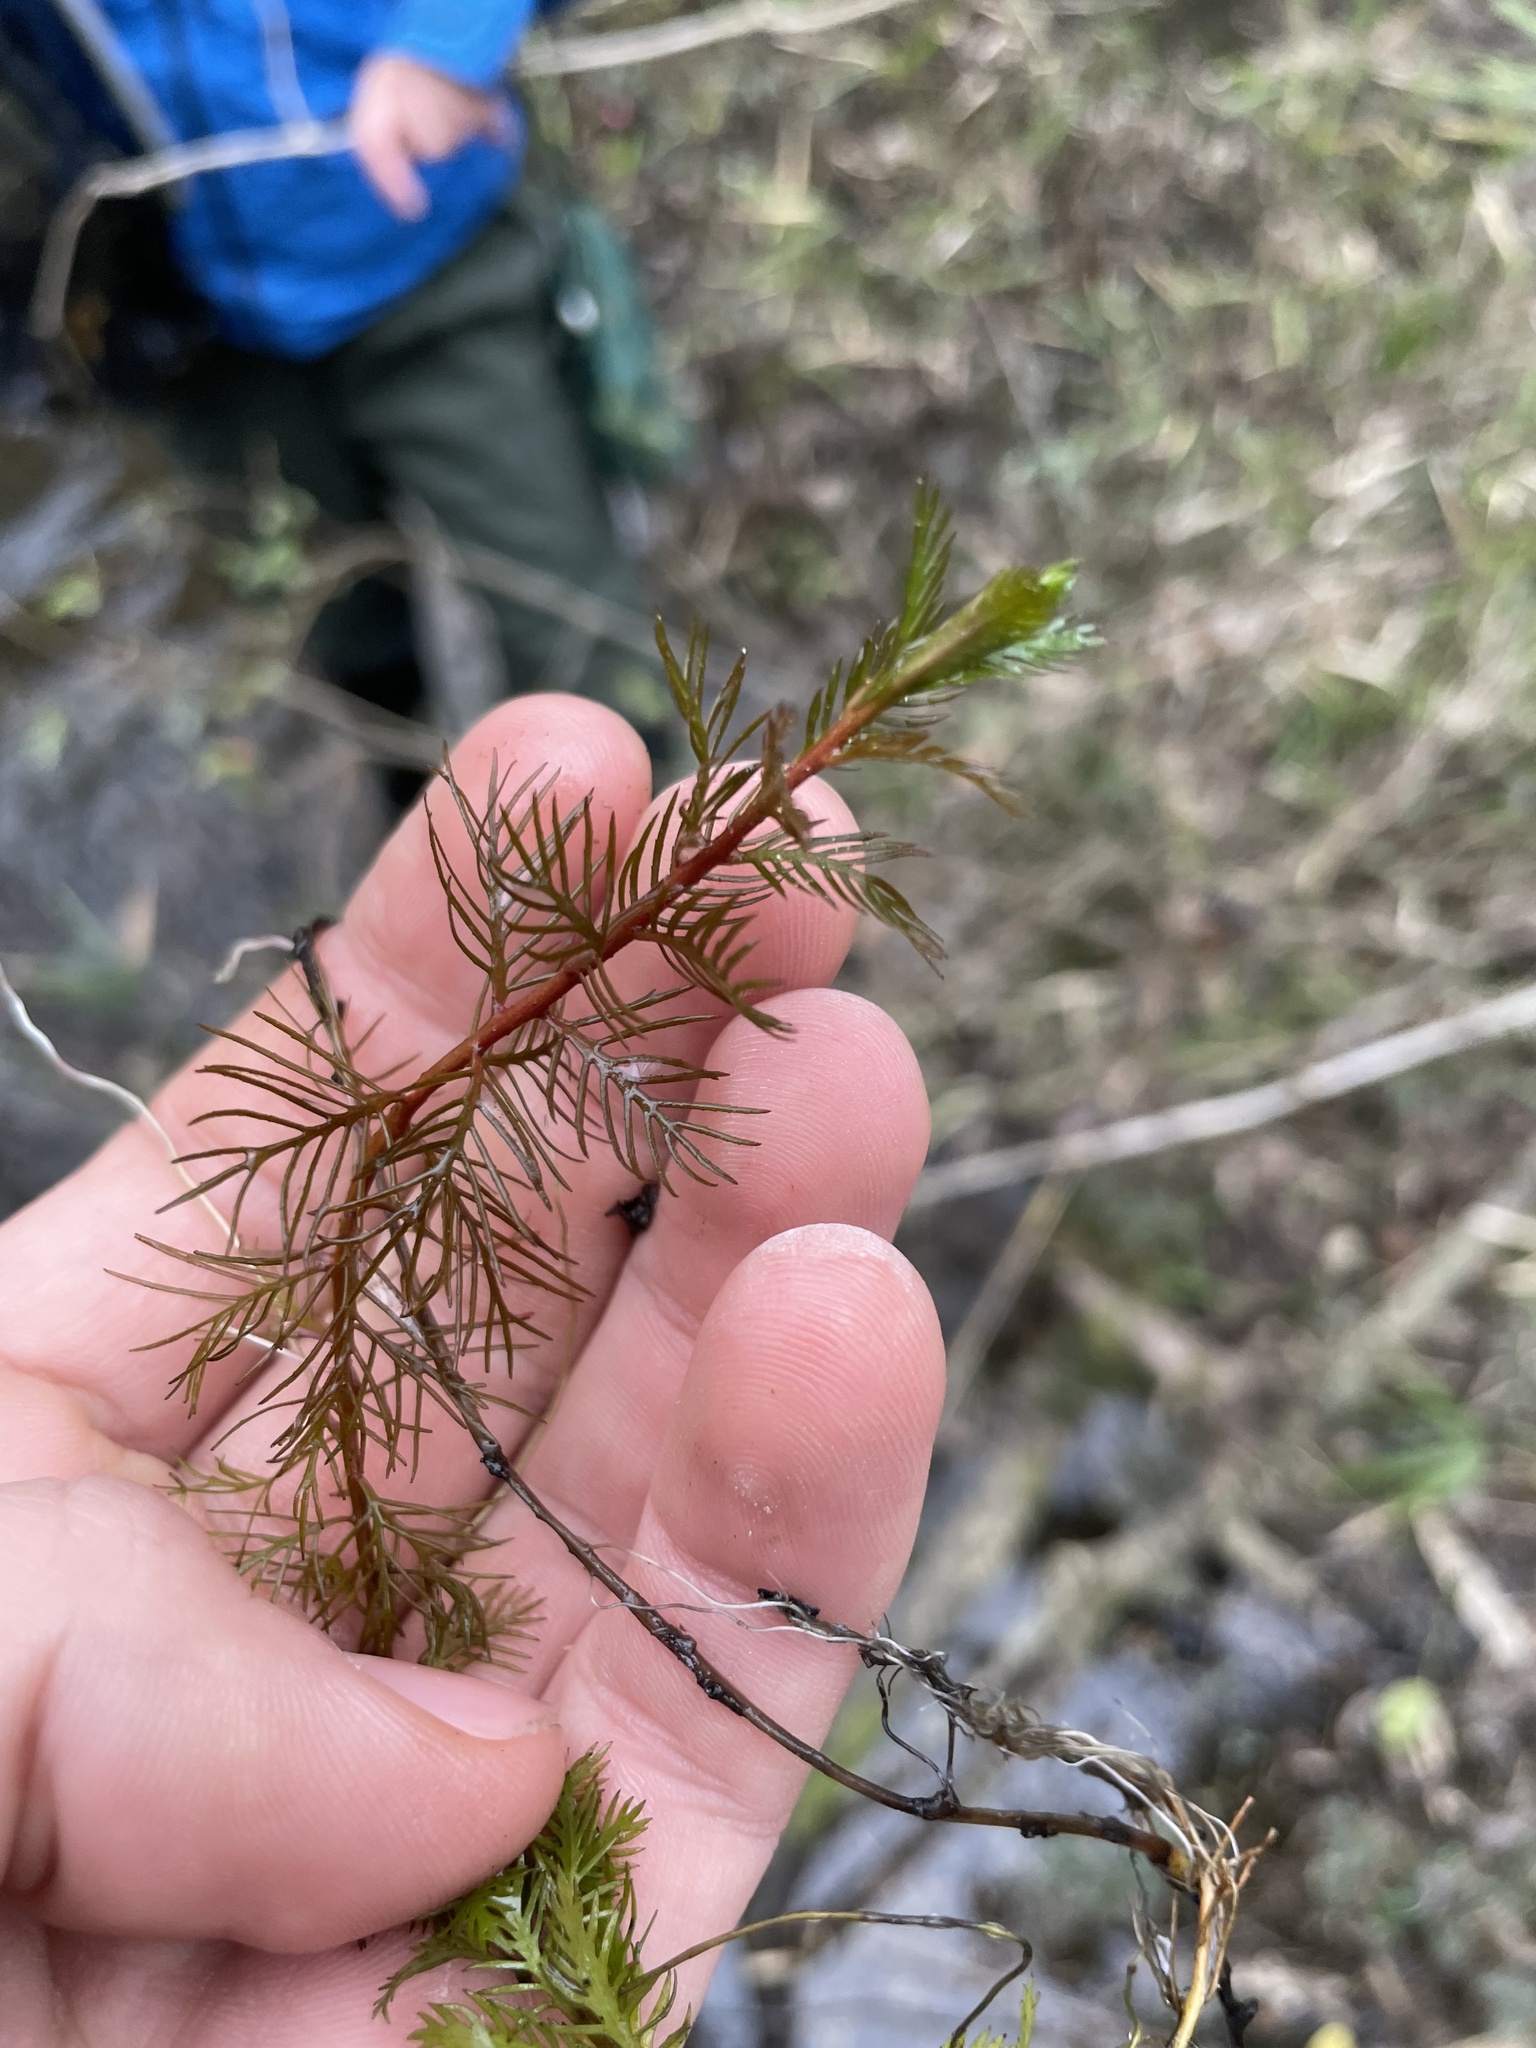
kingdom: Plantae
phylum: Tracheophyta
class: Magnoliopsida
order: Saxifragales
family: Haloragaceae
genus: Proserpinaca
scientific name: Proserpinaca pectinata
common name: Comb-leaved mermaidweed
